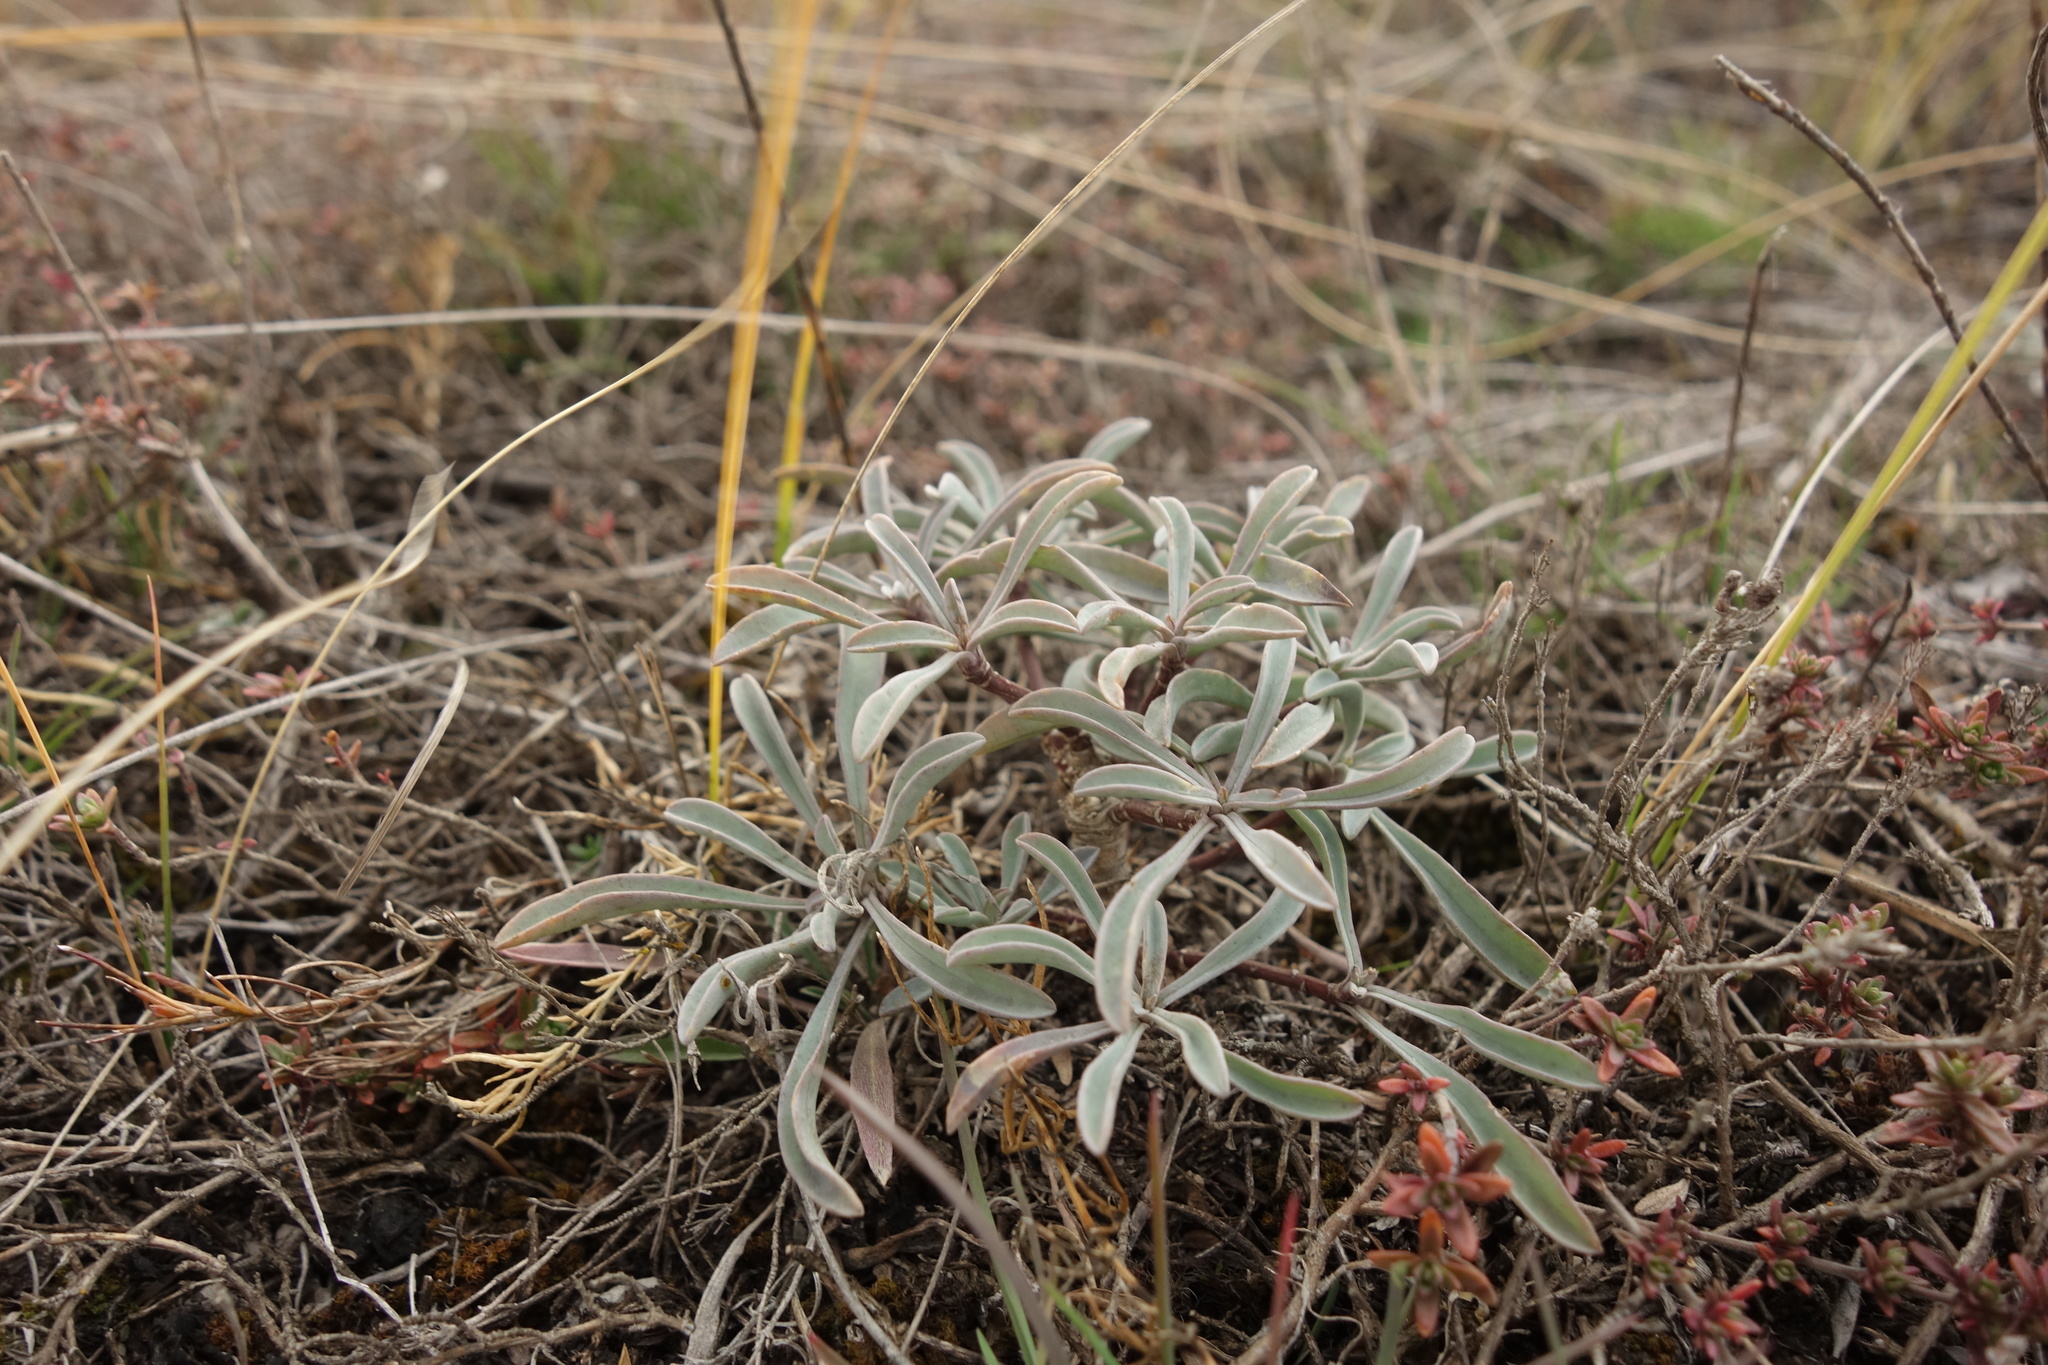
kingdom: Plantae
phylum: Tracheophyta
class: Magnoliopsida
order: Malpighiales
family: Linaceae
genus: Linum
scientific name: Linum ucranicum
